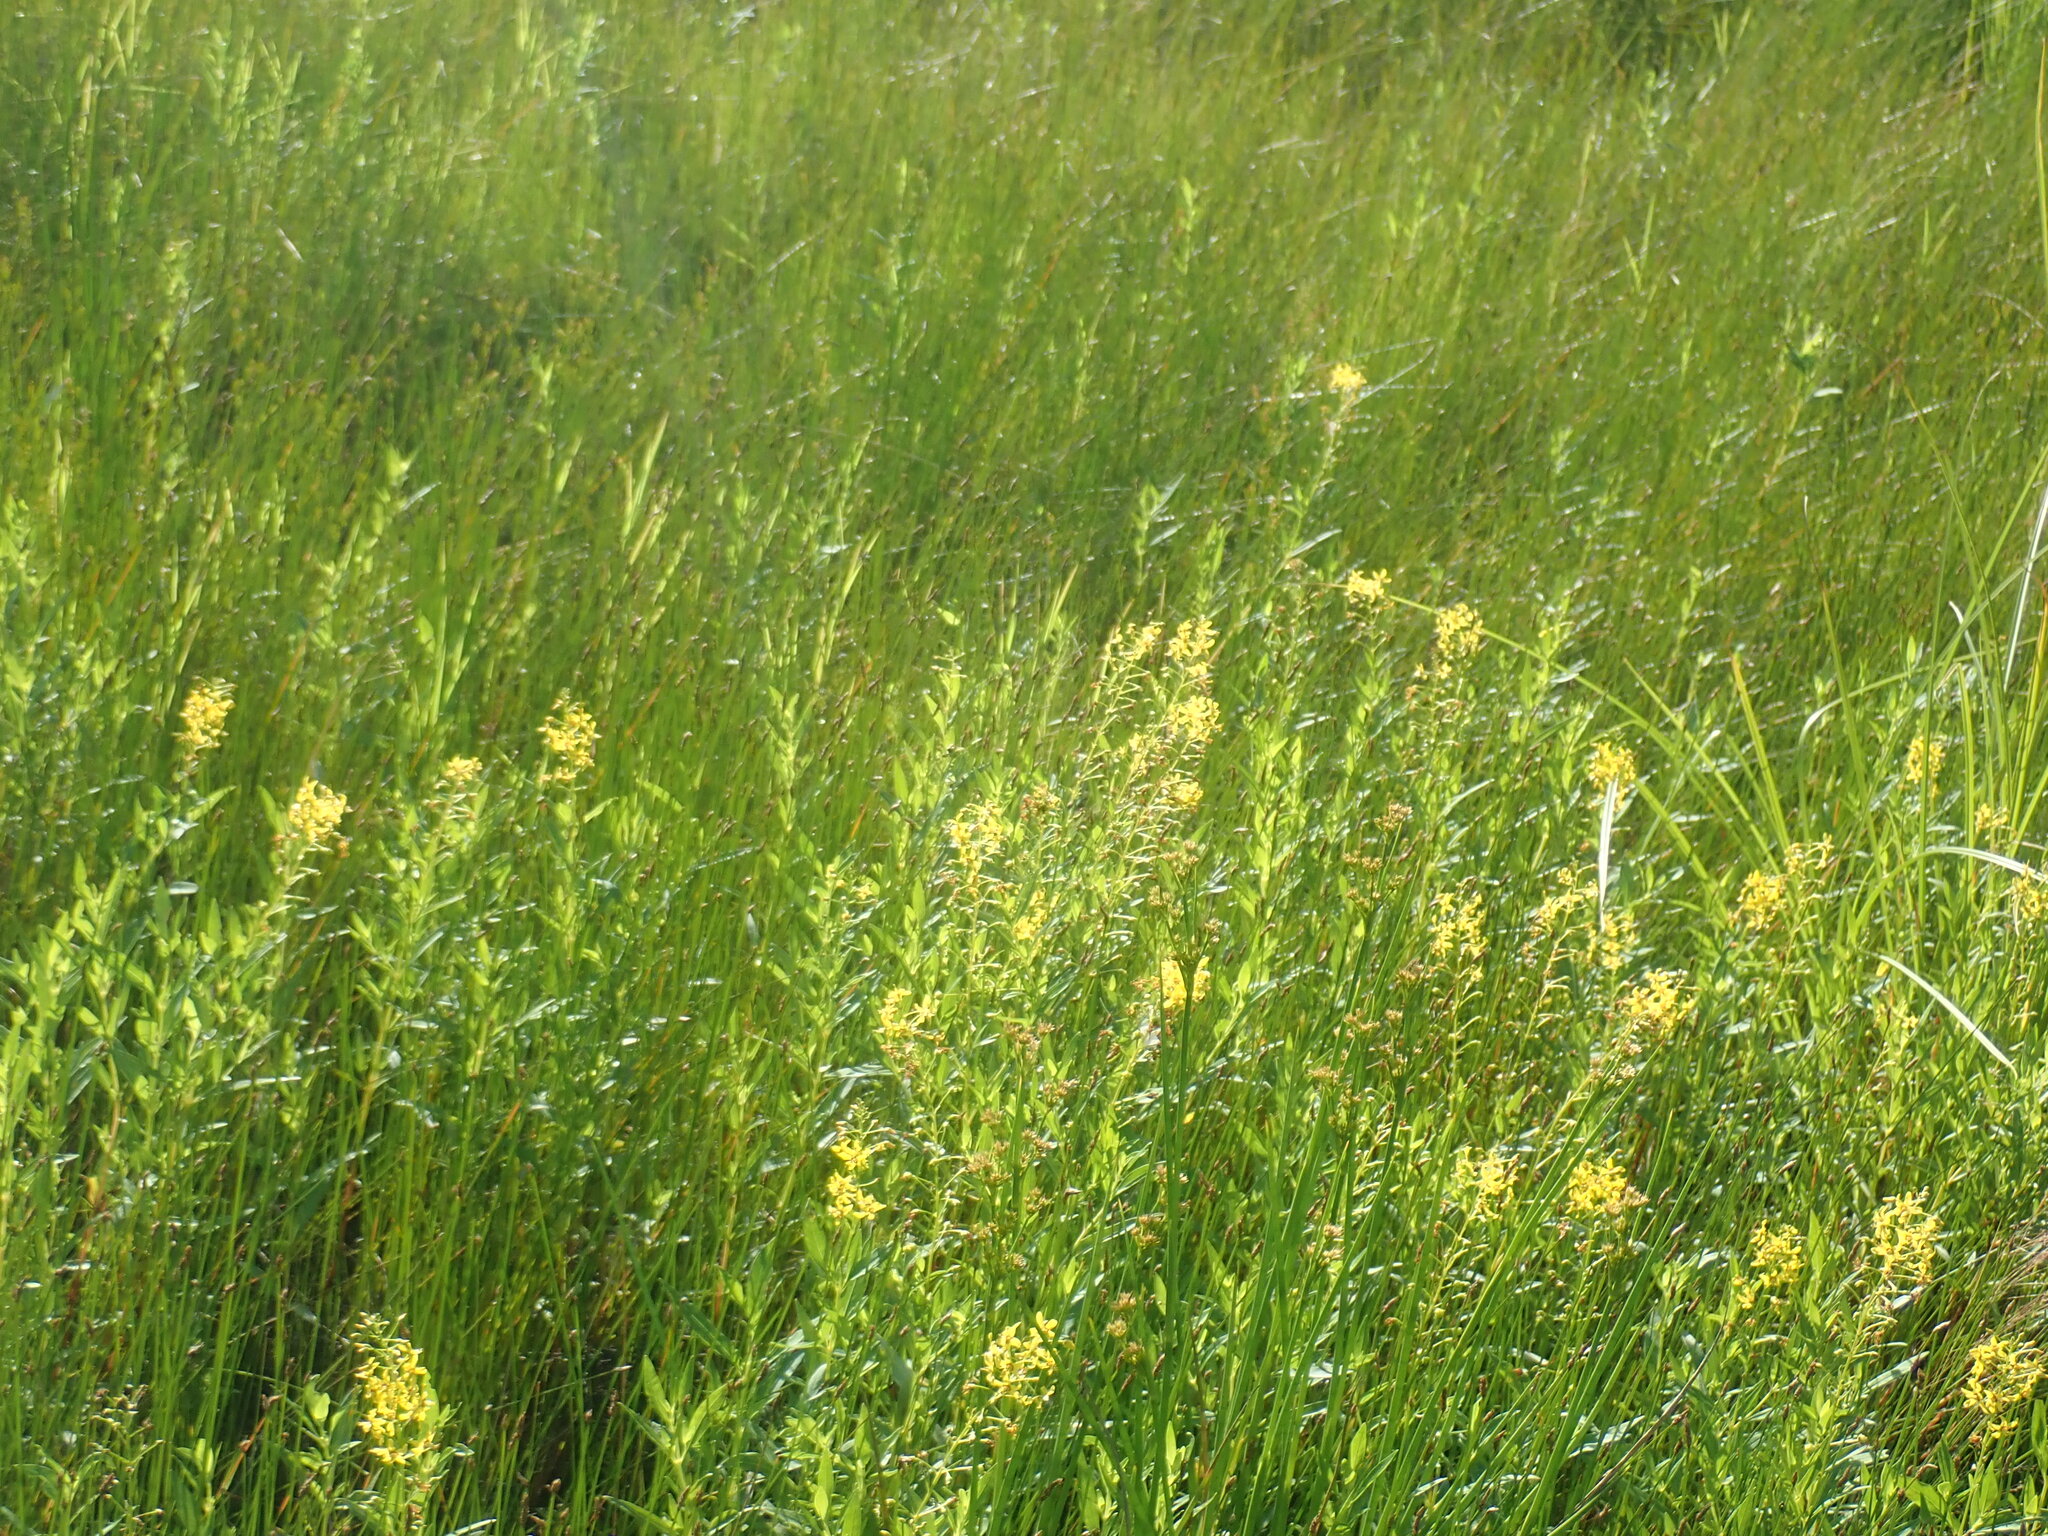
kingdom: Plantae
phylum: Tracheophyta
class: Magnoliopsida
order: Ericales
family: Primulaceae
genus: Lysimachia
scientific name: Lysimachia terrestris
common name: Lake loosestrife
